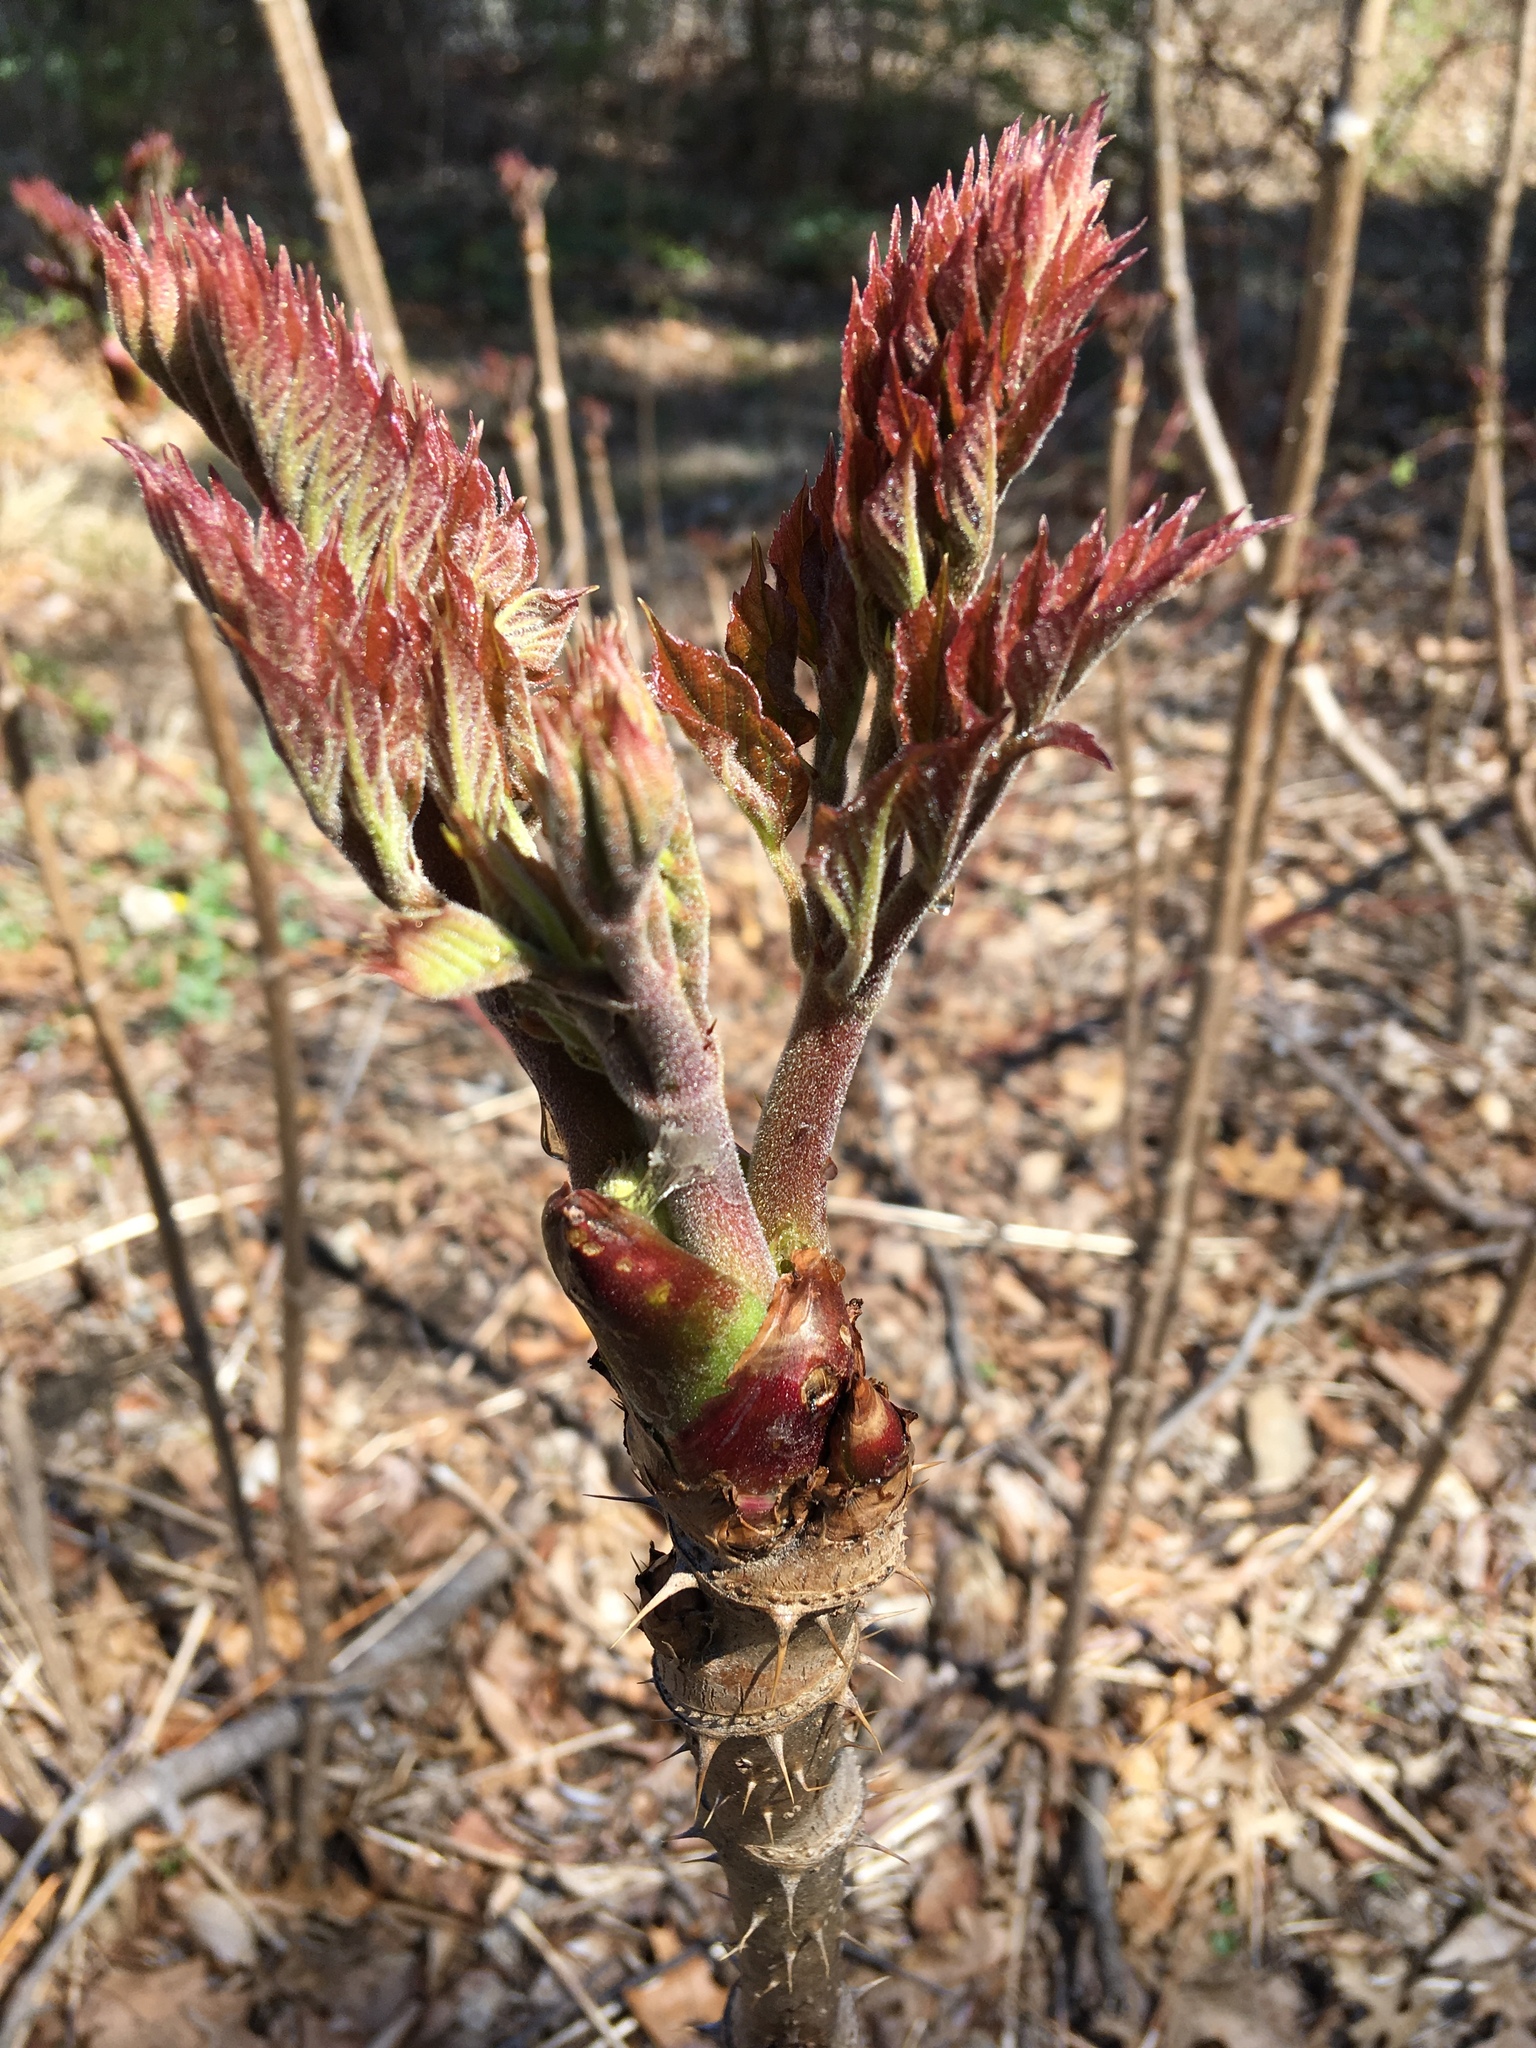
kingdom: Plantae
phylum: Tracheophyta
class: Magnoliopsida
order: Apiales
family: Araliaceae
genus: Aralia
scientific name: Aralia elata
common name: Japanese angelica-tree
